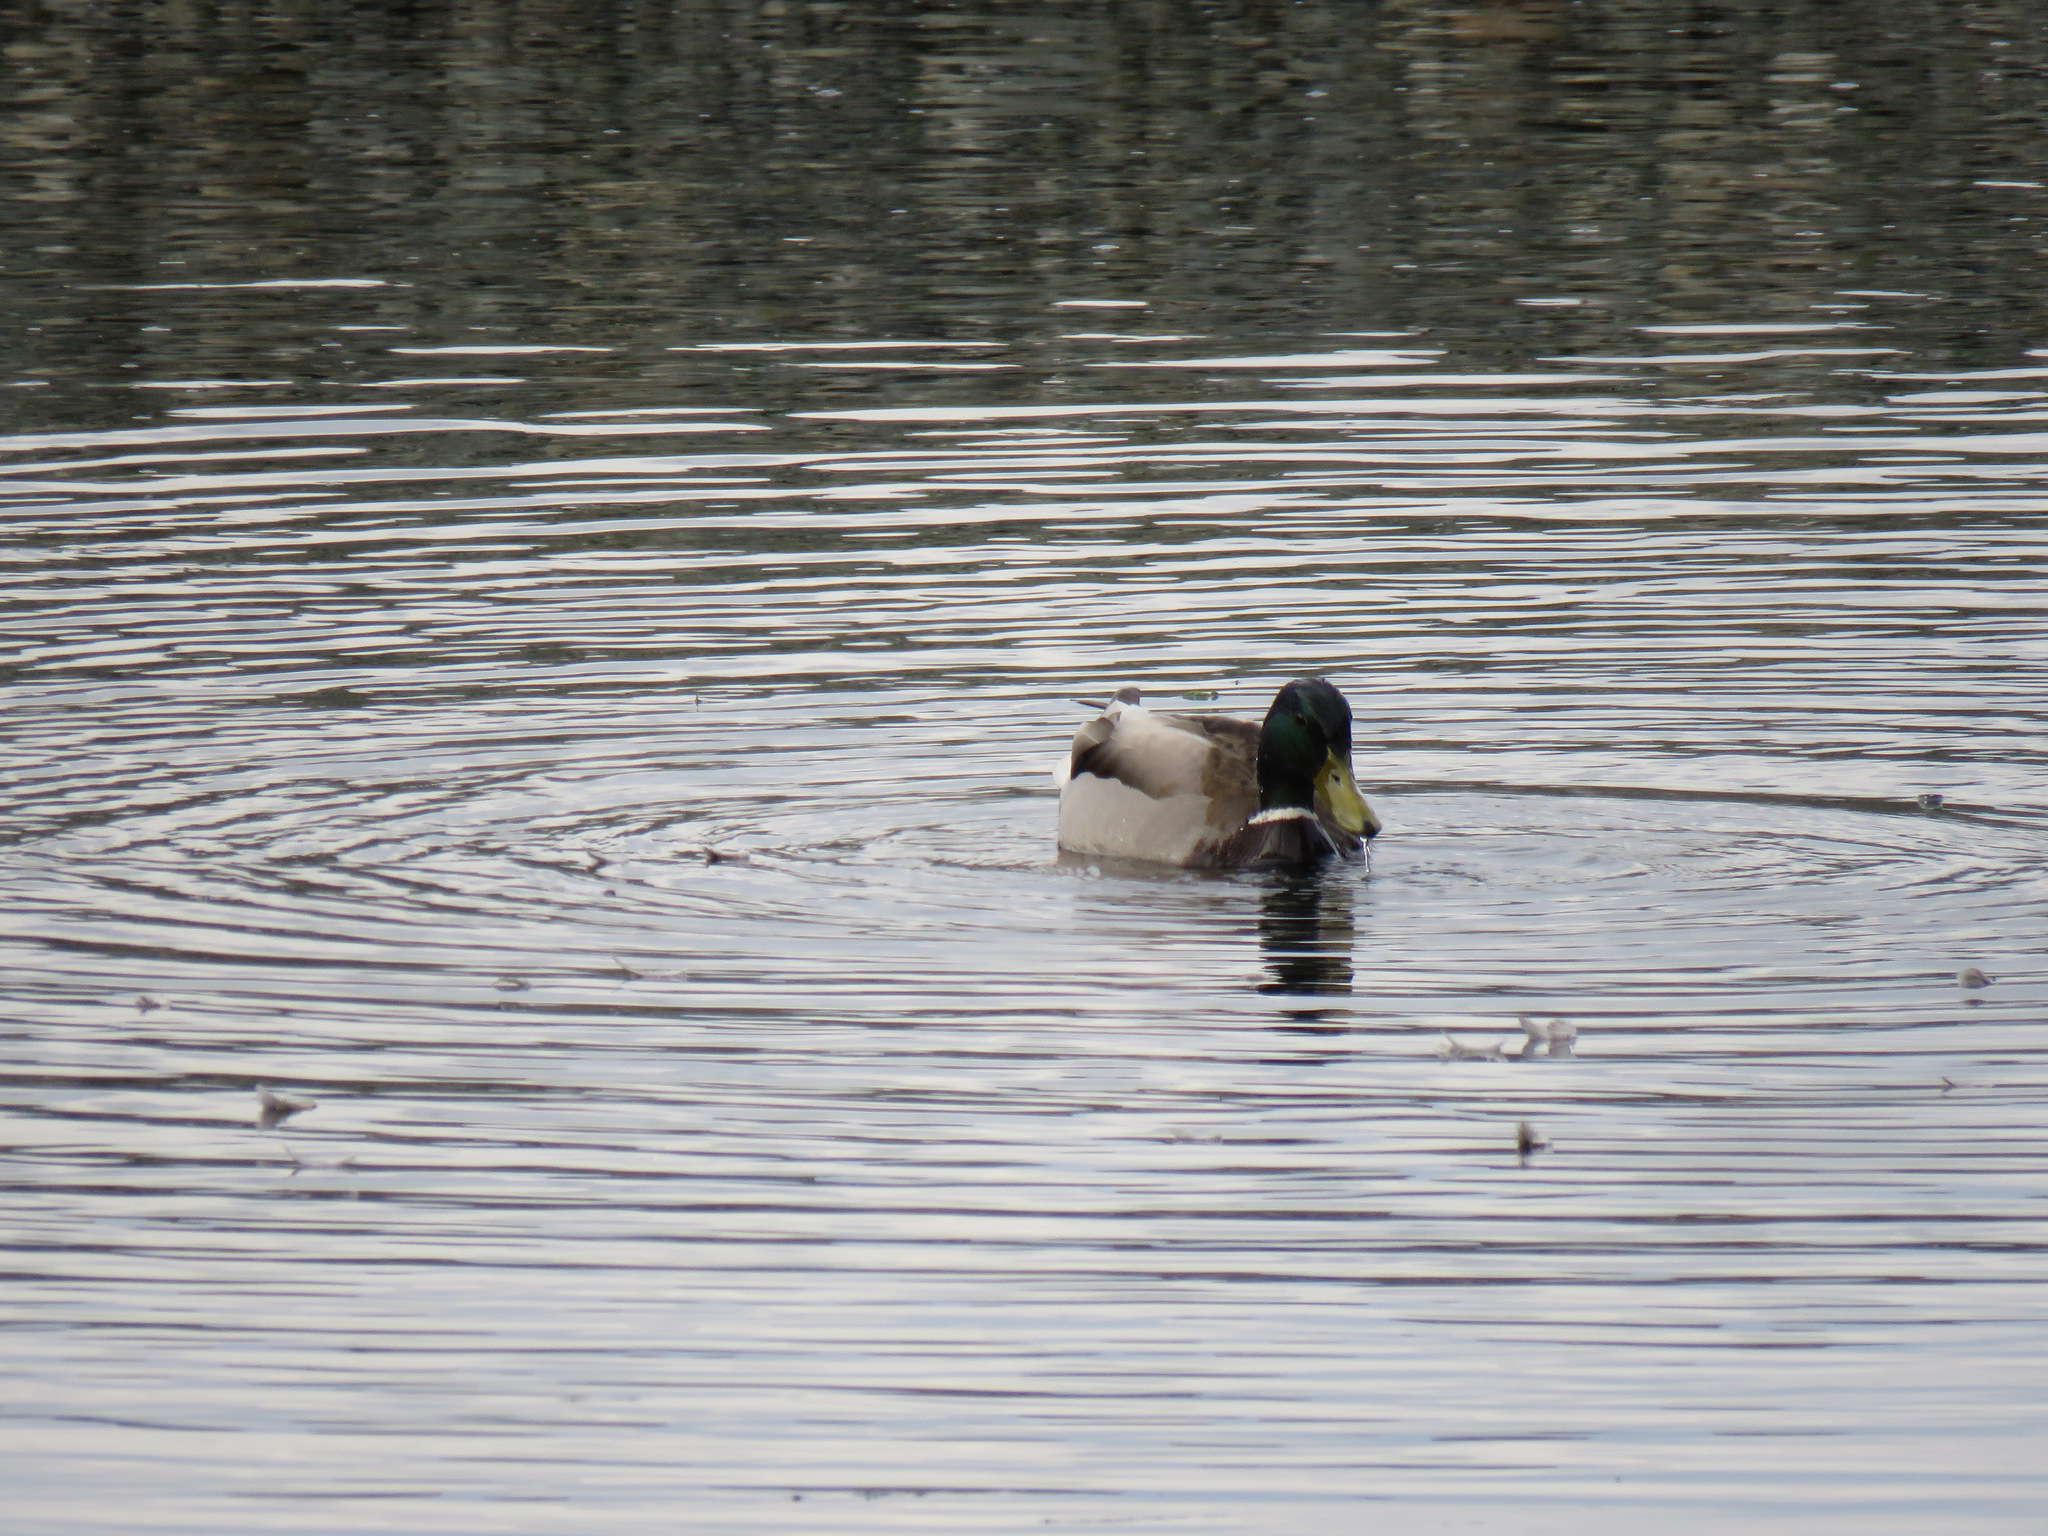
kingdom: Animalia
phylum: Chordata
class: Aves
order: Anseriformes
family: Anatidae
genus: Anas
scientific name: Anas platyrhynchos
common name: Mallard
